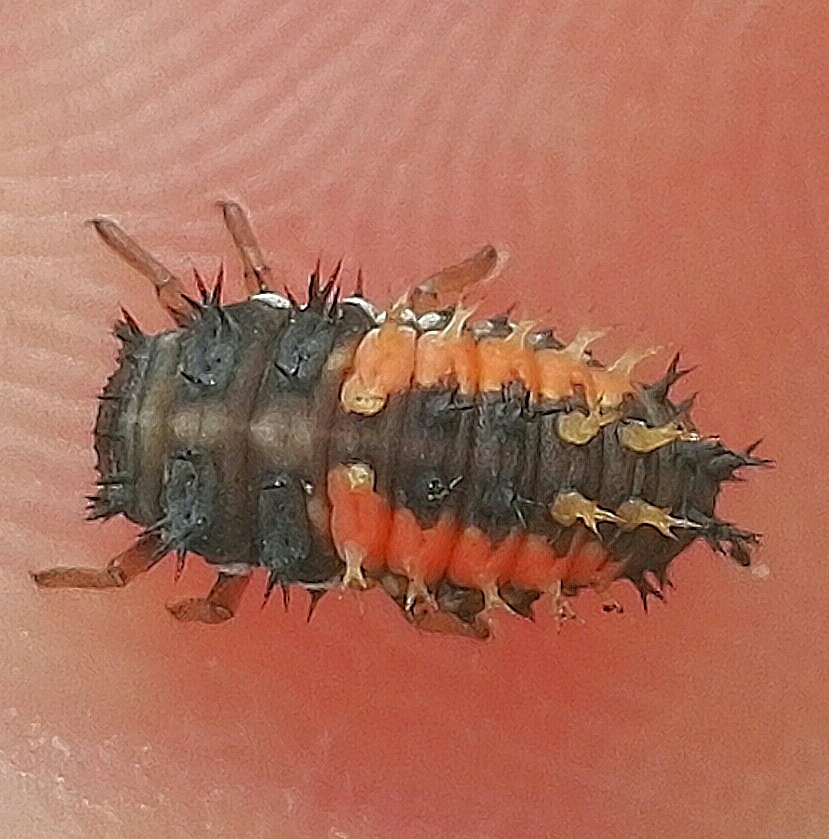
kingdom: Animalia
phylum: Arthropoda
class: Insecta
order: Coleoptera
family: Coccinellidae
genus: Harmonia
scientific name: Harmonia axyridis
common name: Harlequin ladybird
